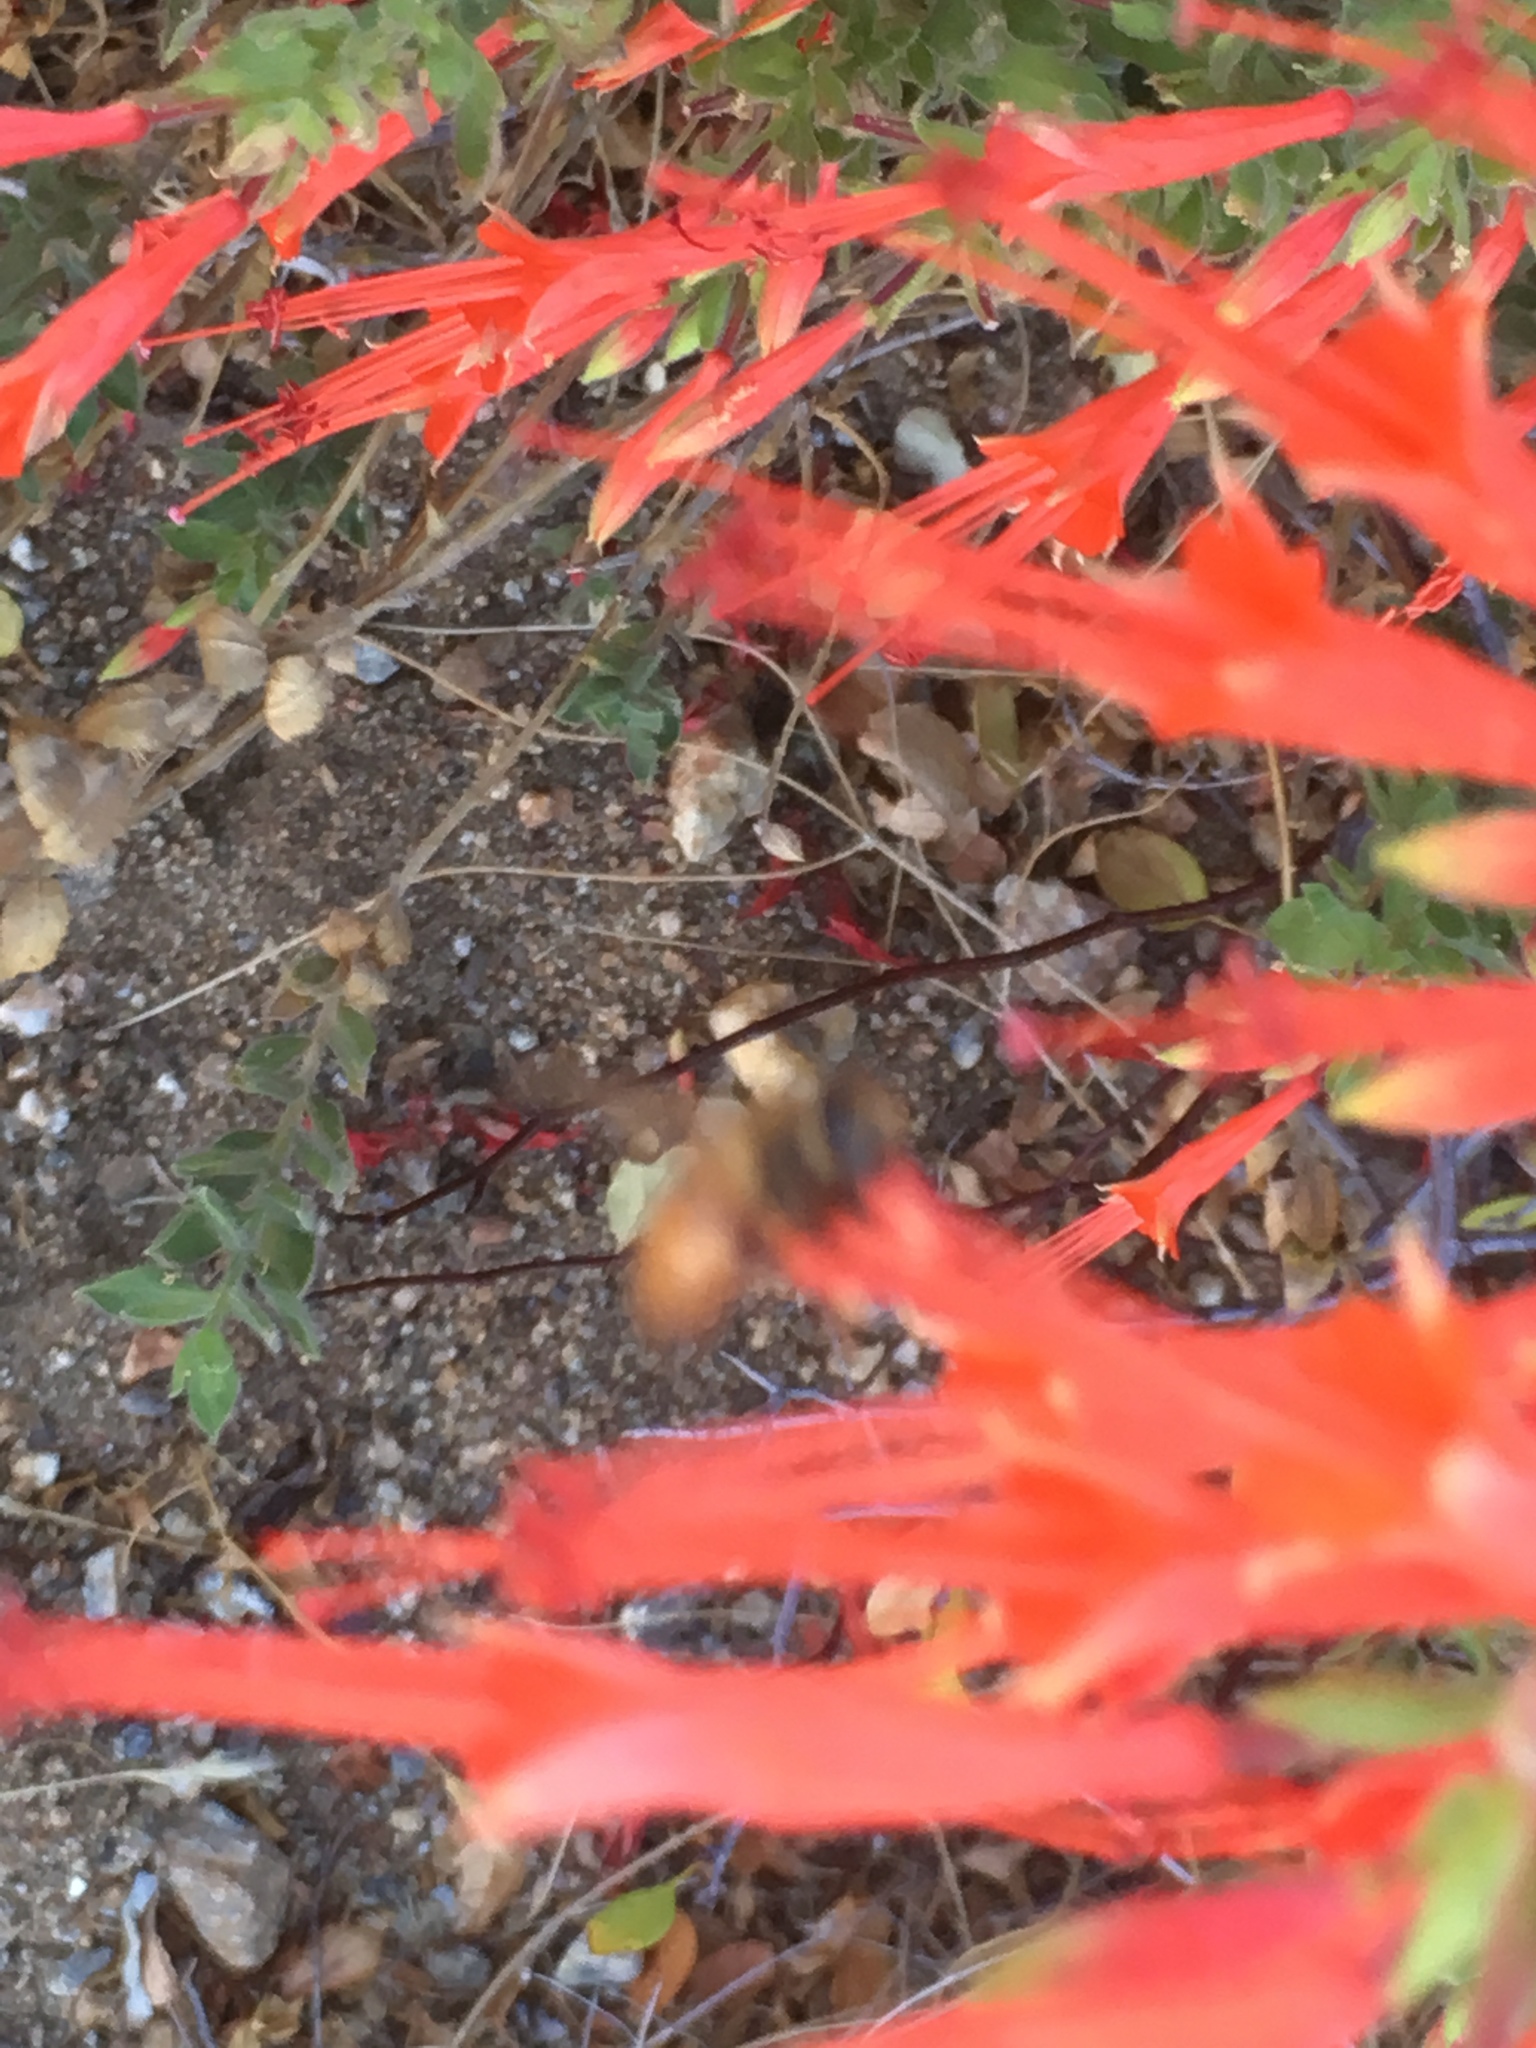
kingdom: Animalia
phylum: Arthropoda
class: Insecta
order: Hymenoptera
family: Apidae
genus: Apis
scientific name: Apis mellifera
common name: Honey bee
